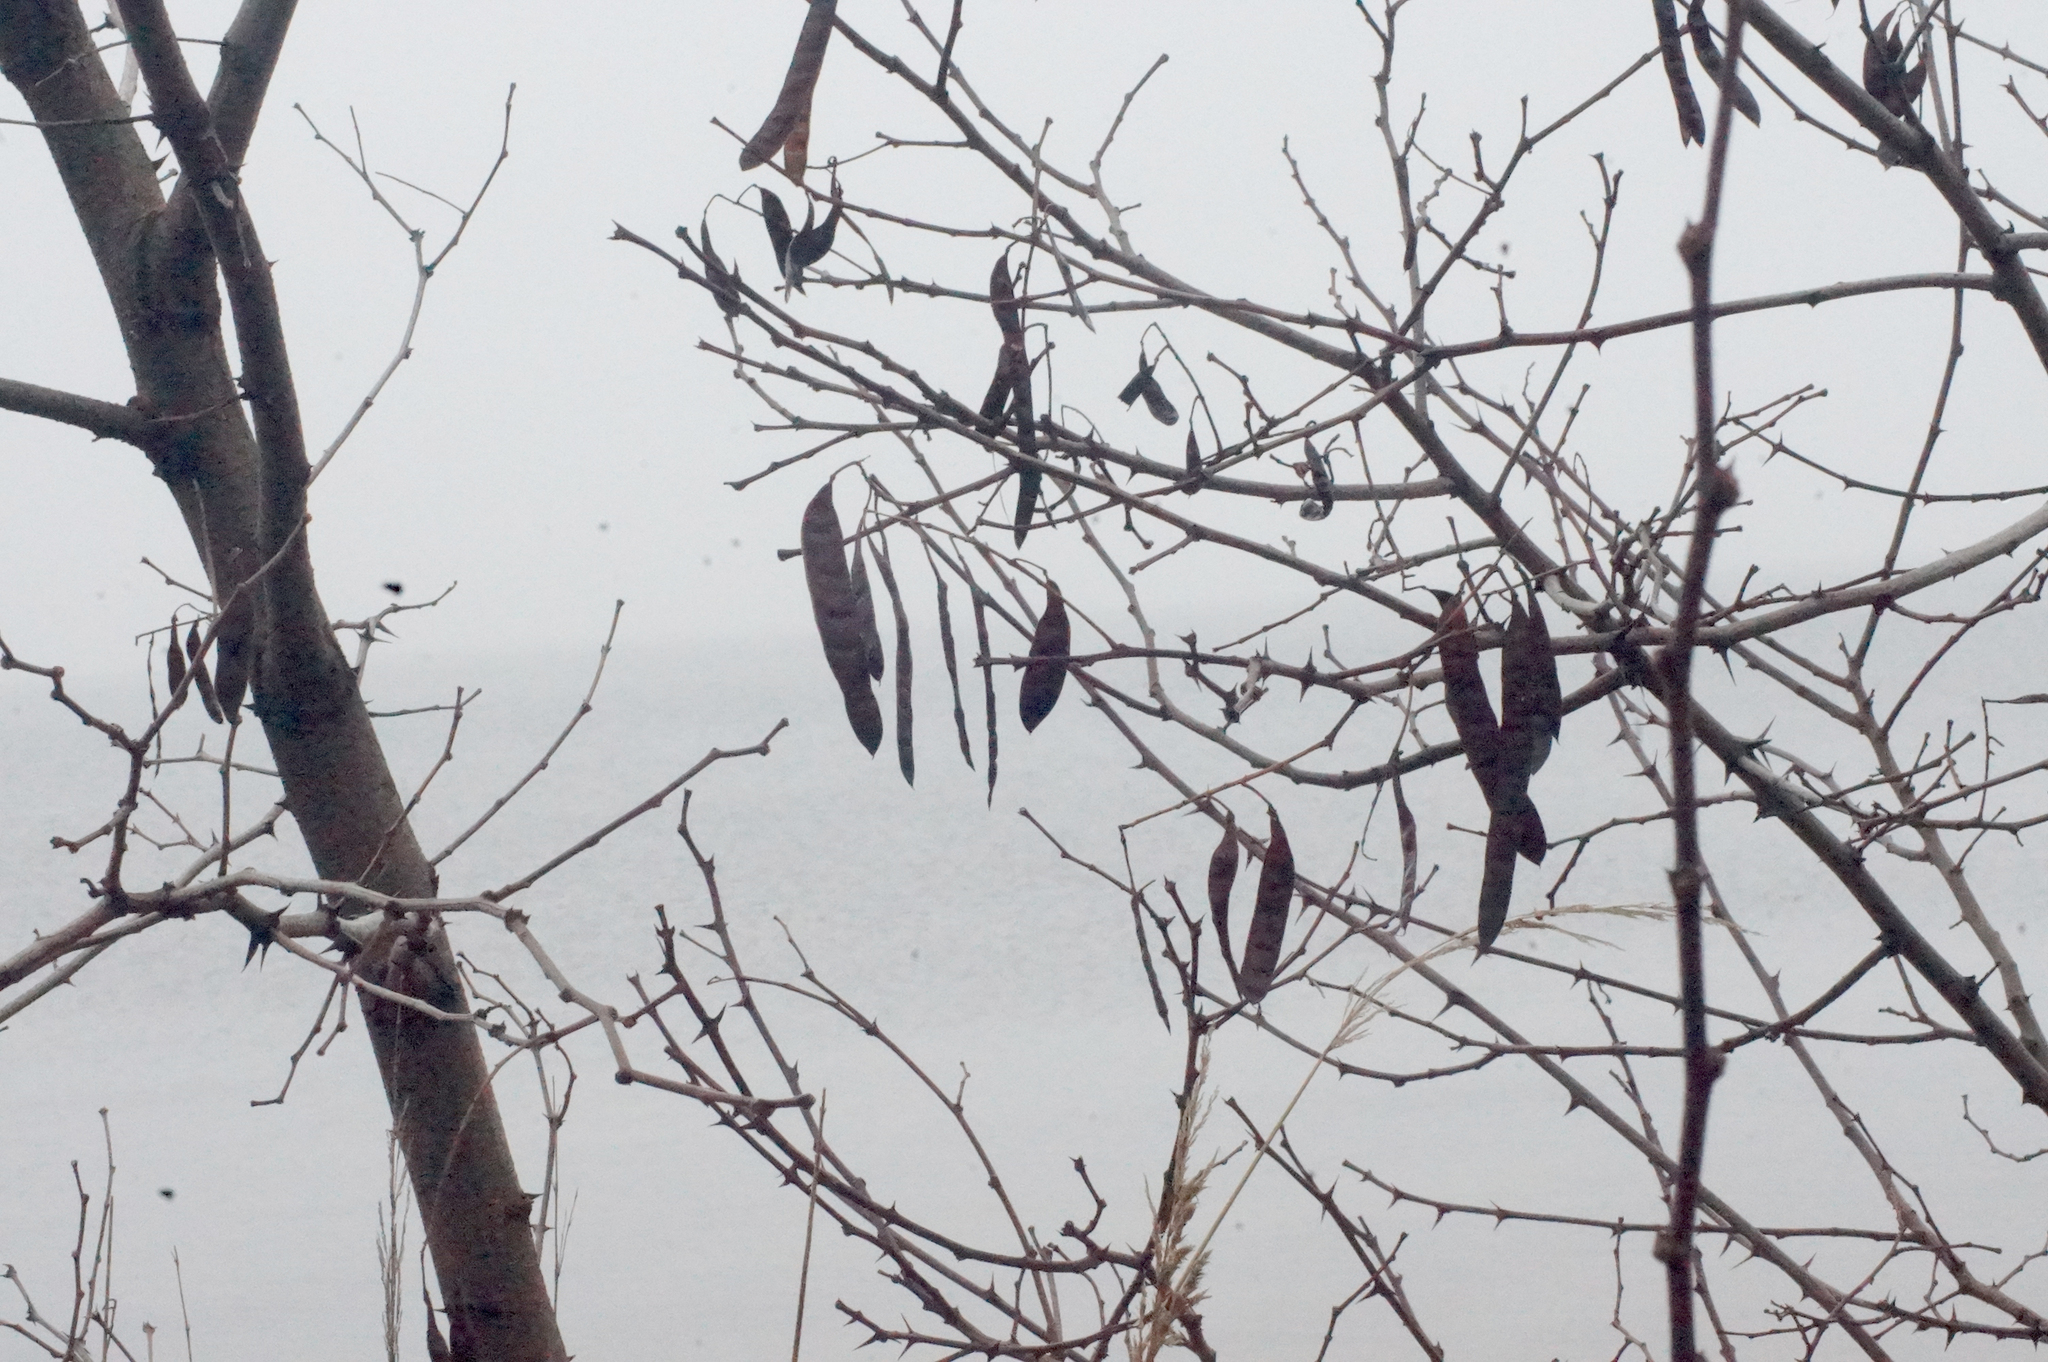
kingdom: Plantae
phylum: Tracheophyta
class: Magnoliopsida
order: Fabales
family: Fabaceae
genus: Robinia
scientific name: Robinia pseudoacacia
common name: Black locust
